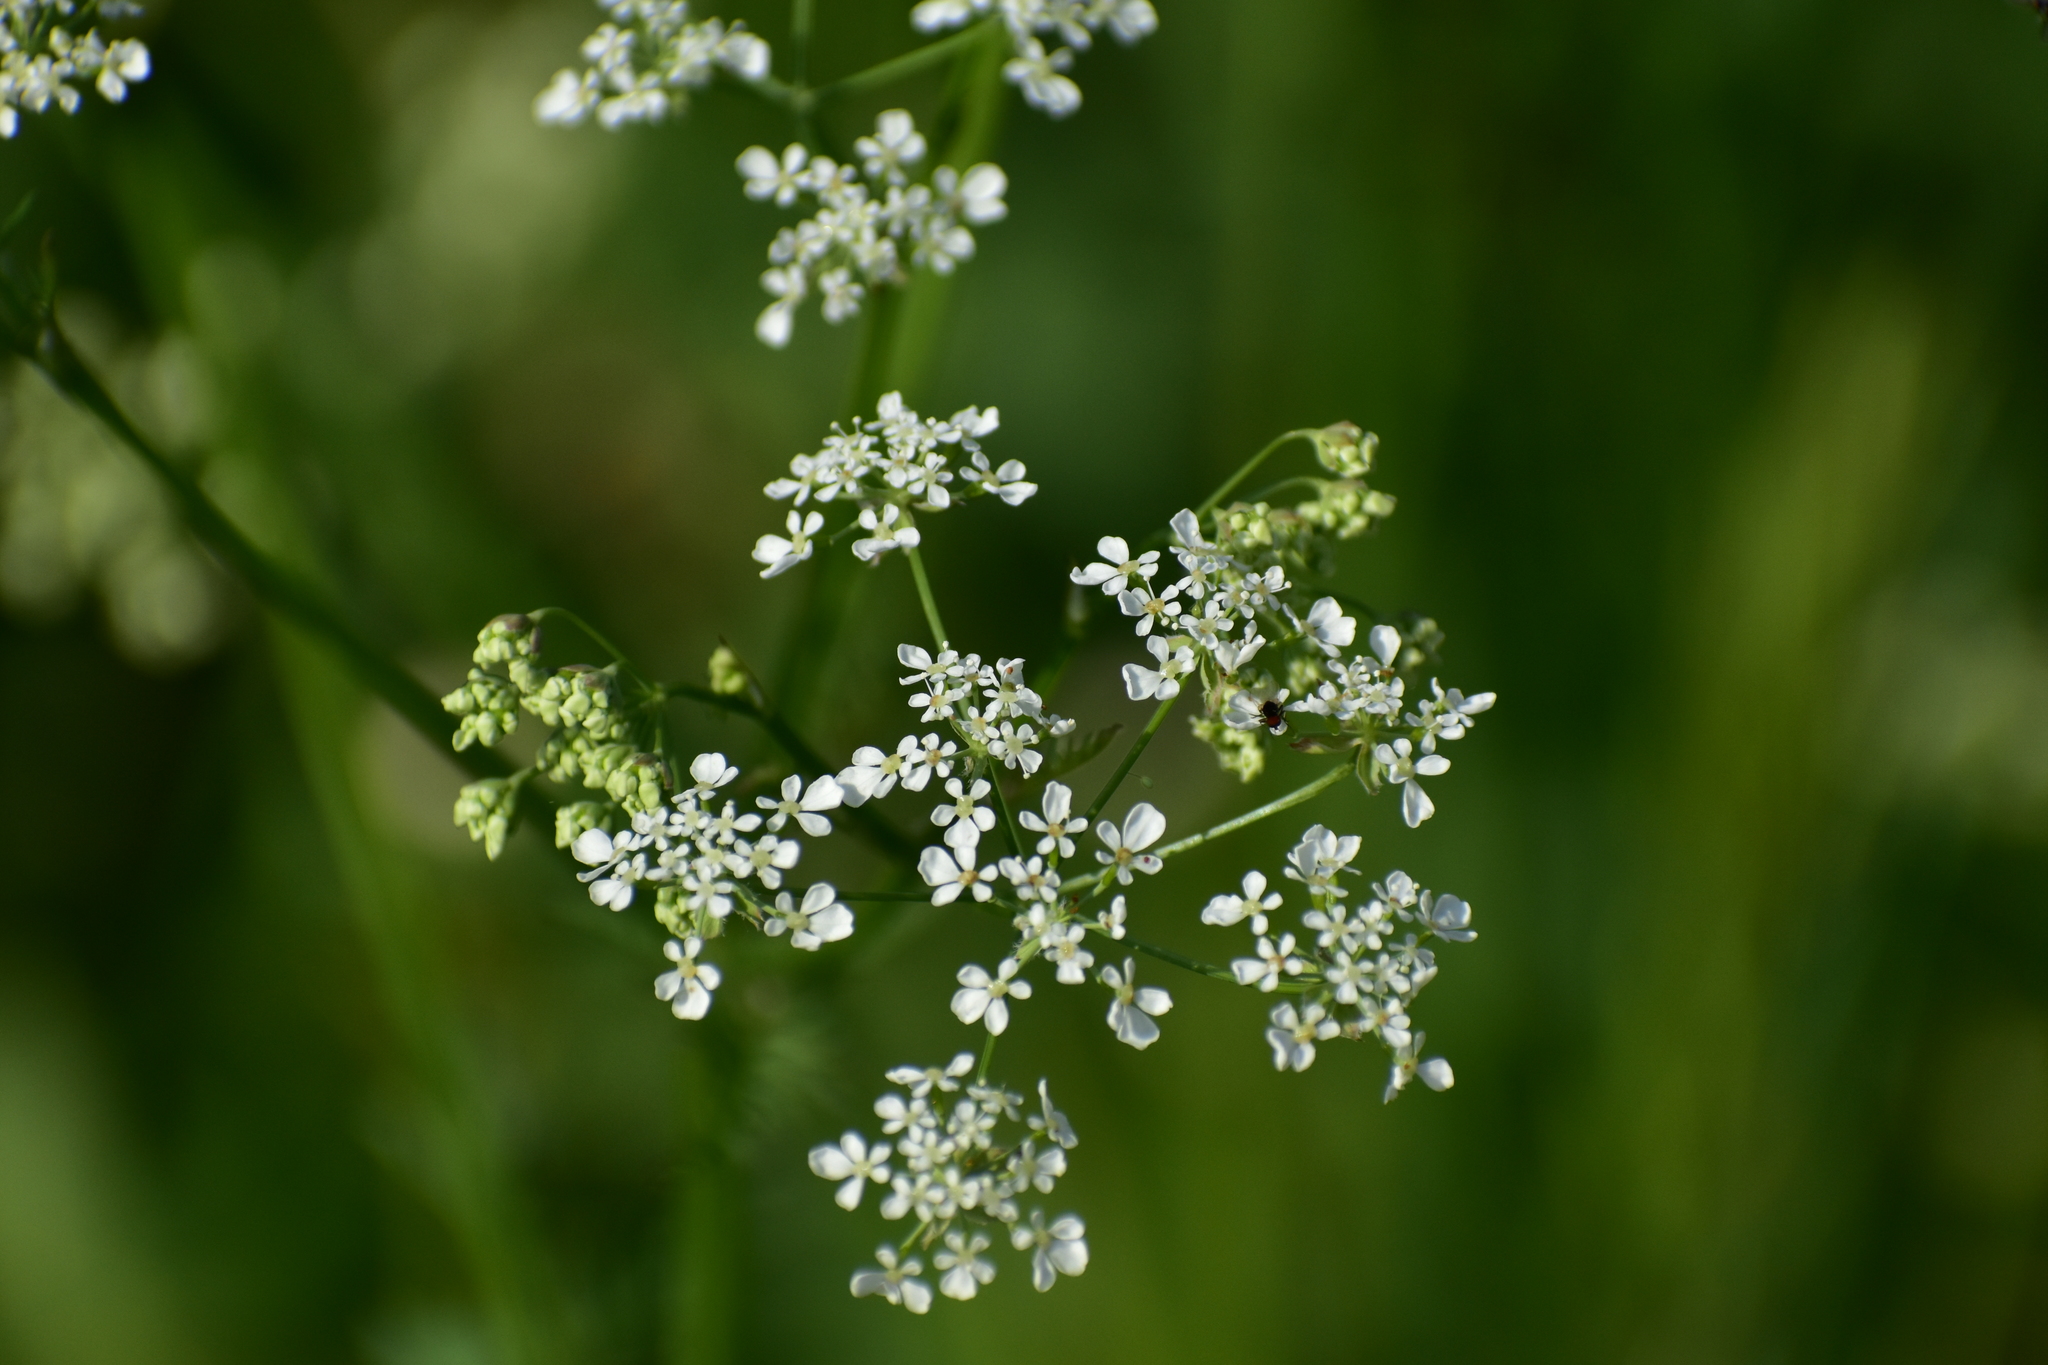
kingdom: Plantae
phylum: Tracheophyta
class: Magnoliopsida
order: Apiales
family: Apiaceae
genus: Anthriscus
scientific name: Anthriscus sylvestris
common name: Cow parsley
